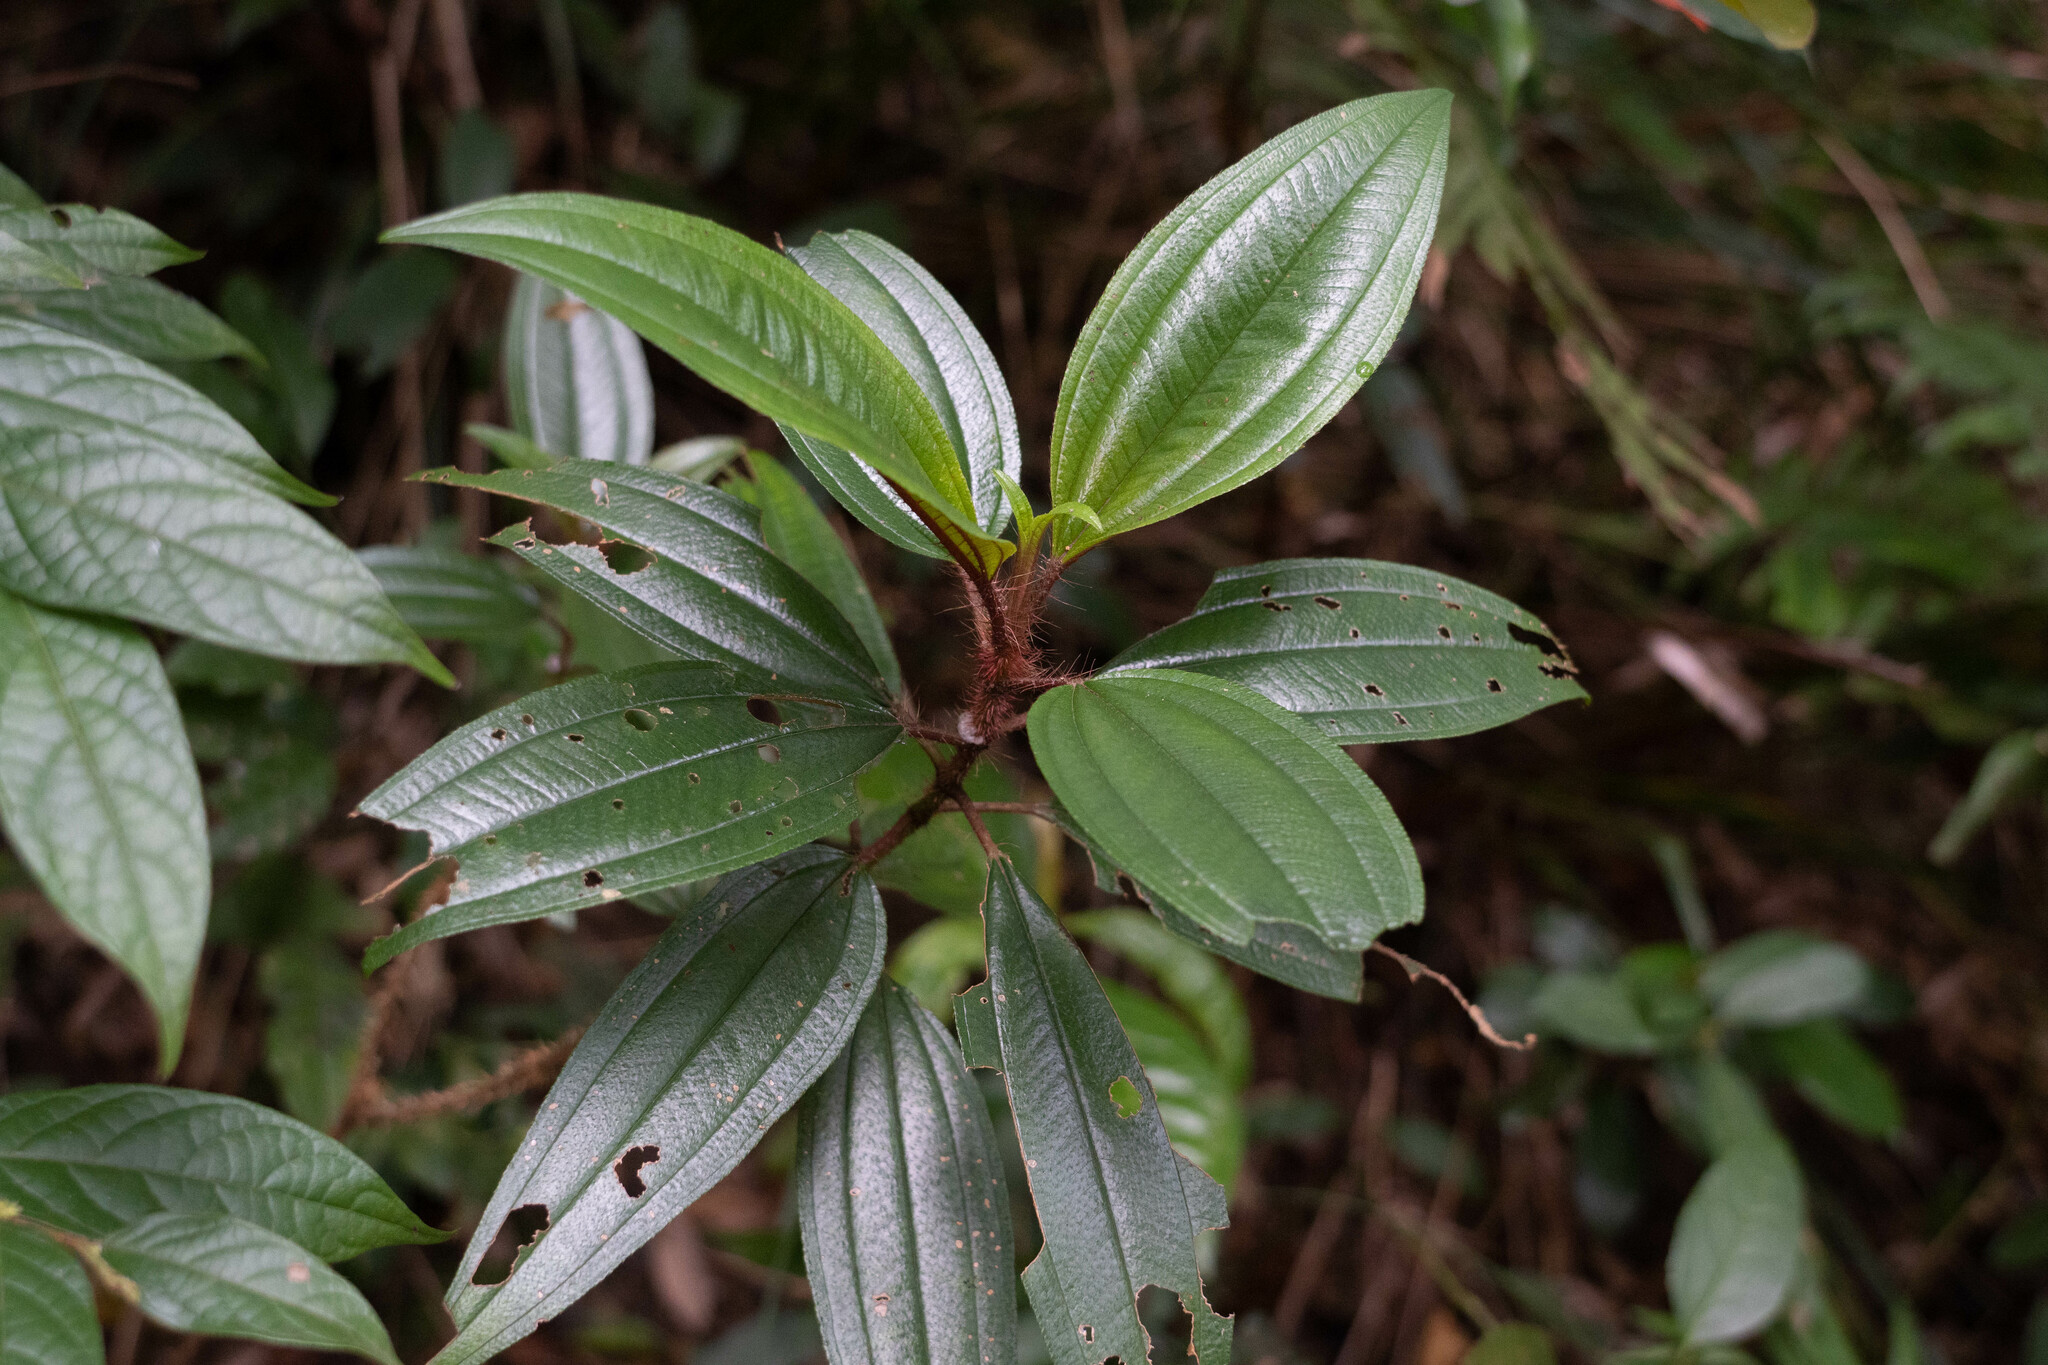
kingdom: Plantae
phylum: Tracheophyta
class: Magnoliopsida
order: Myrtales
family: Melastomataceae
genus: Melastoma
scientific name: Melastoma sanguineum
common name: Red melastome
